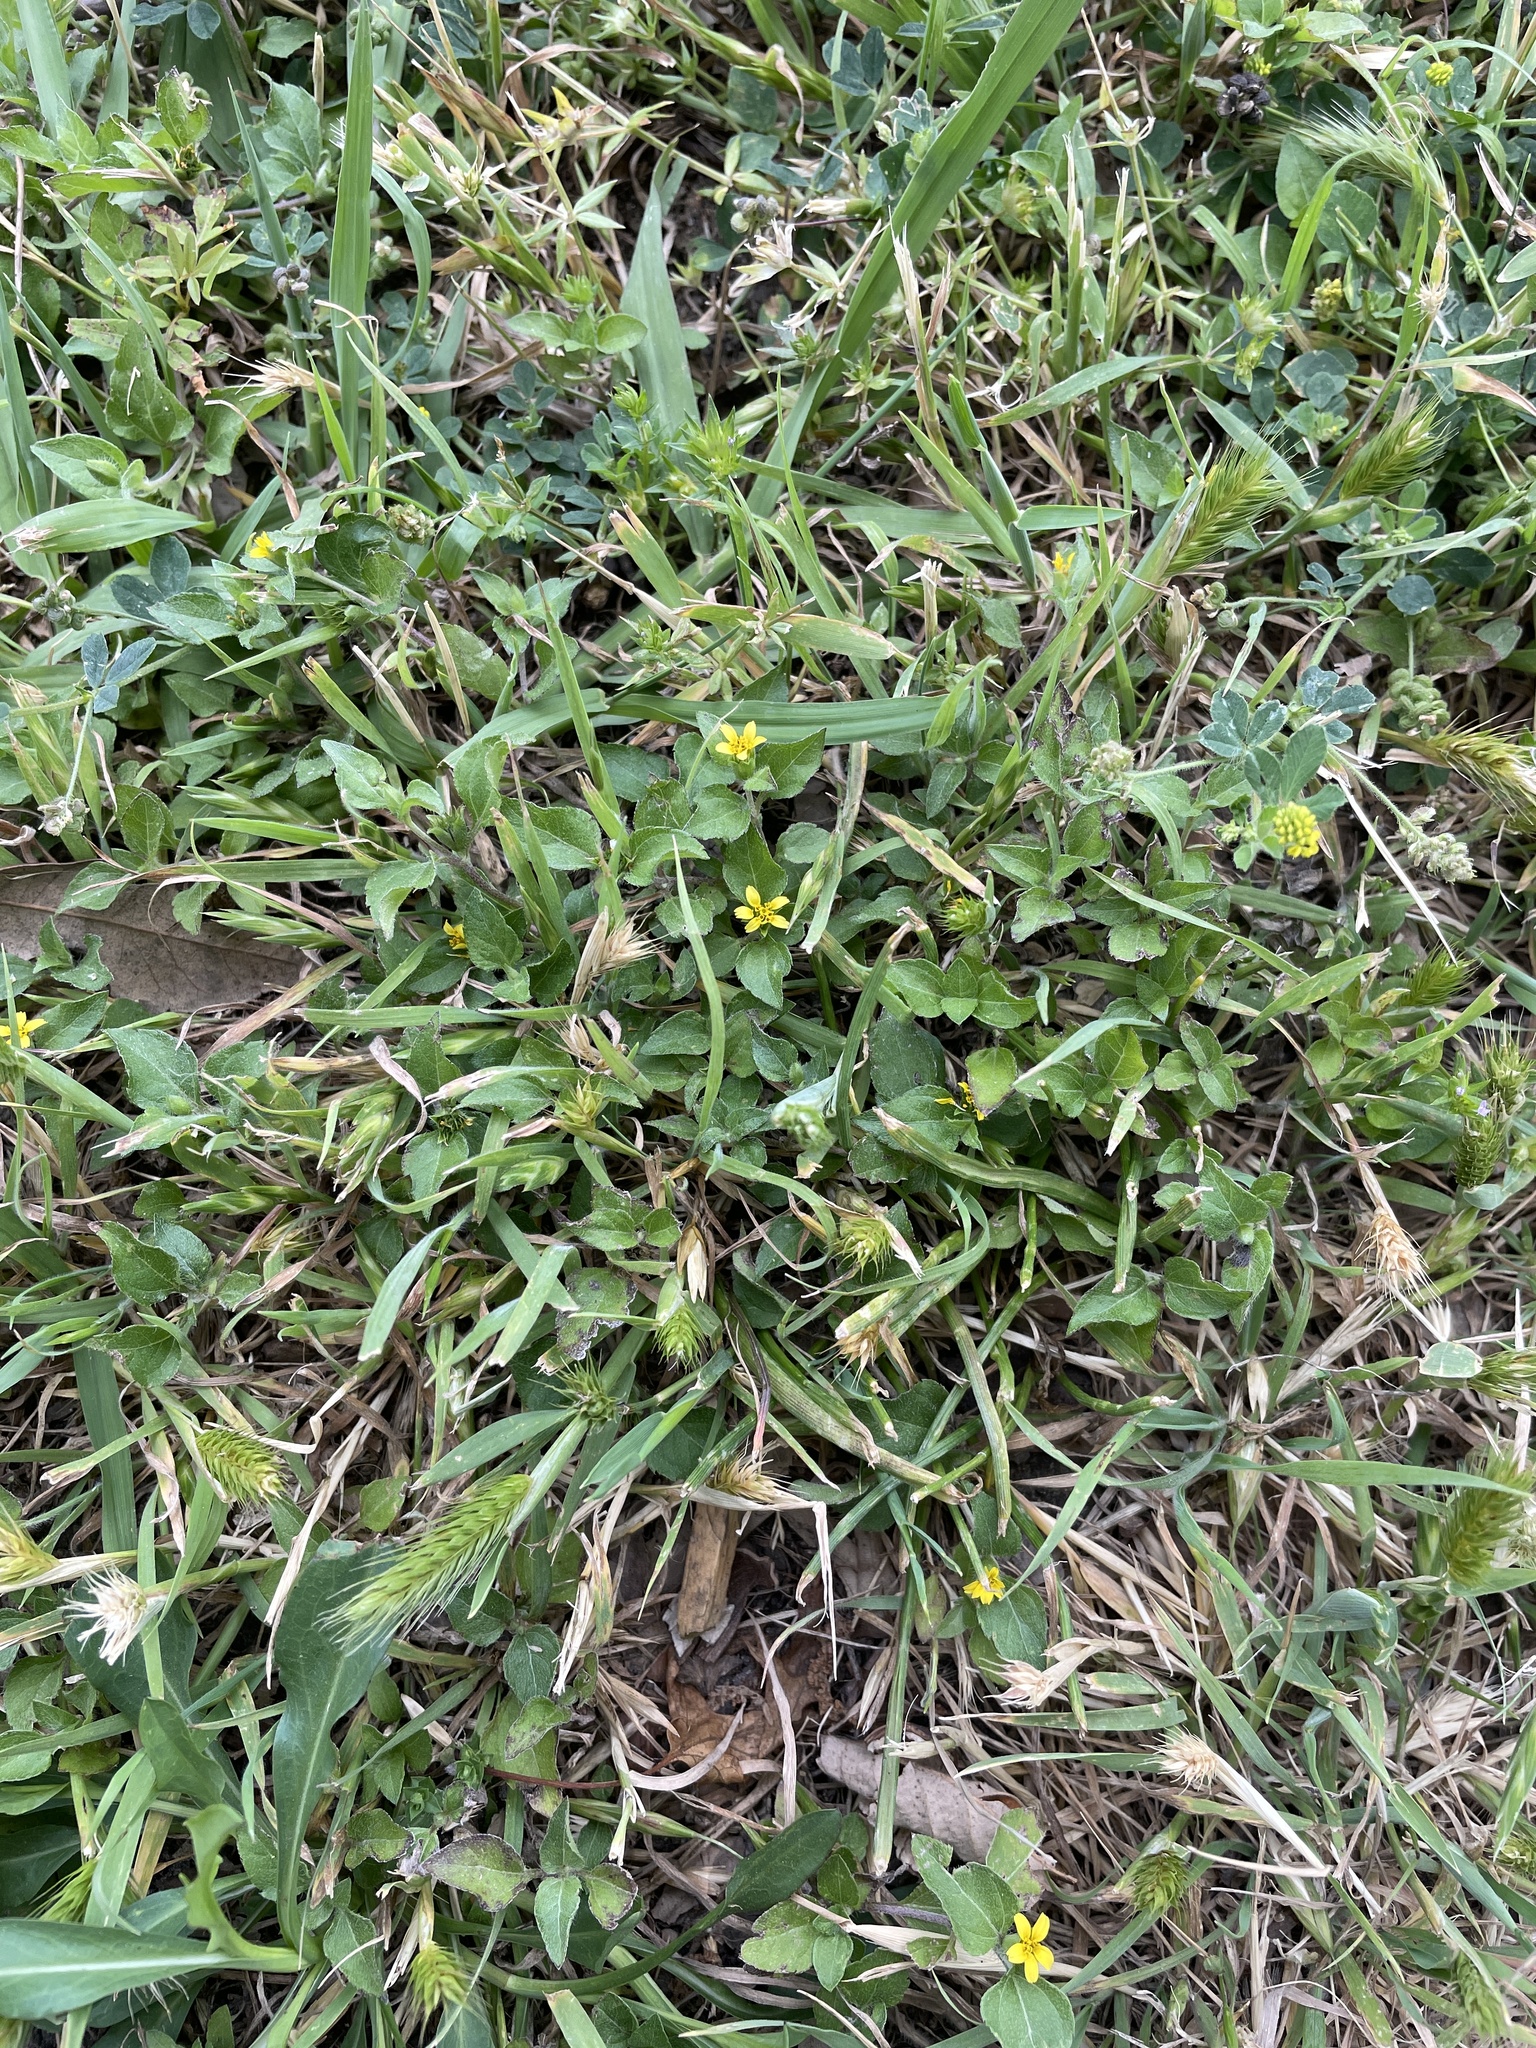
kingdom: Plantae
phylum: Tracheophyta
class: Magnoliopsida
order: Asterales
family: Asteraceae
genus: Calyptocarpus
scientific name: Calyptocarpus vialis
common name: Straggler daisy
